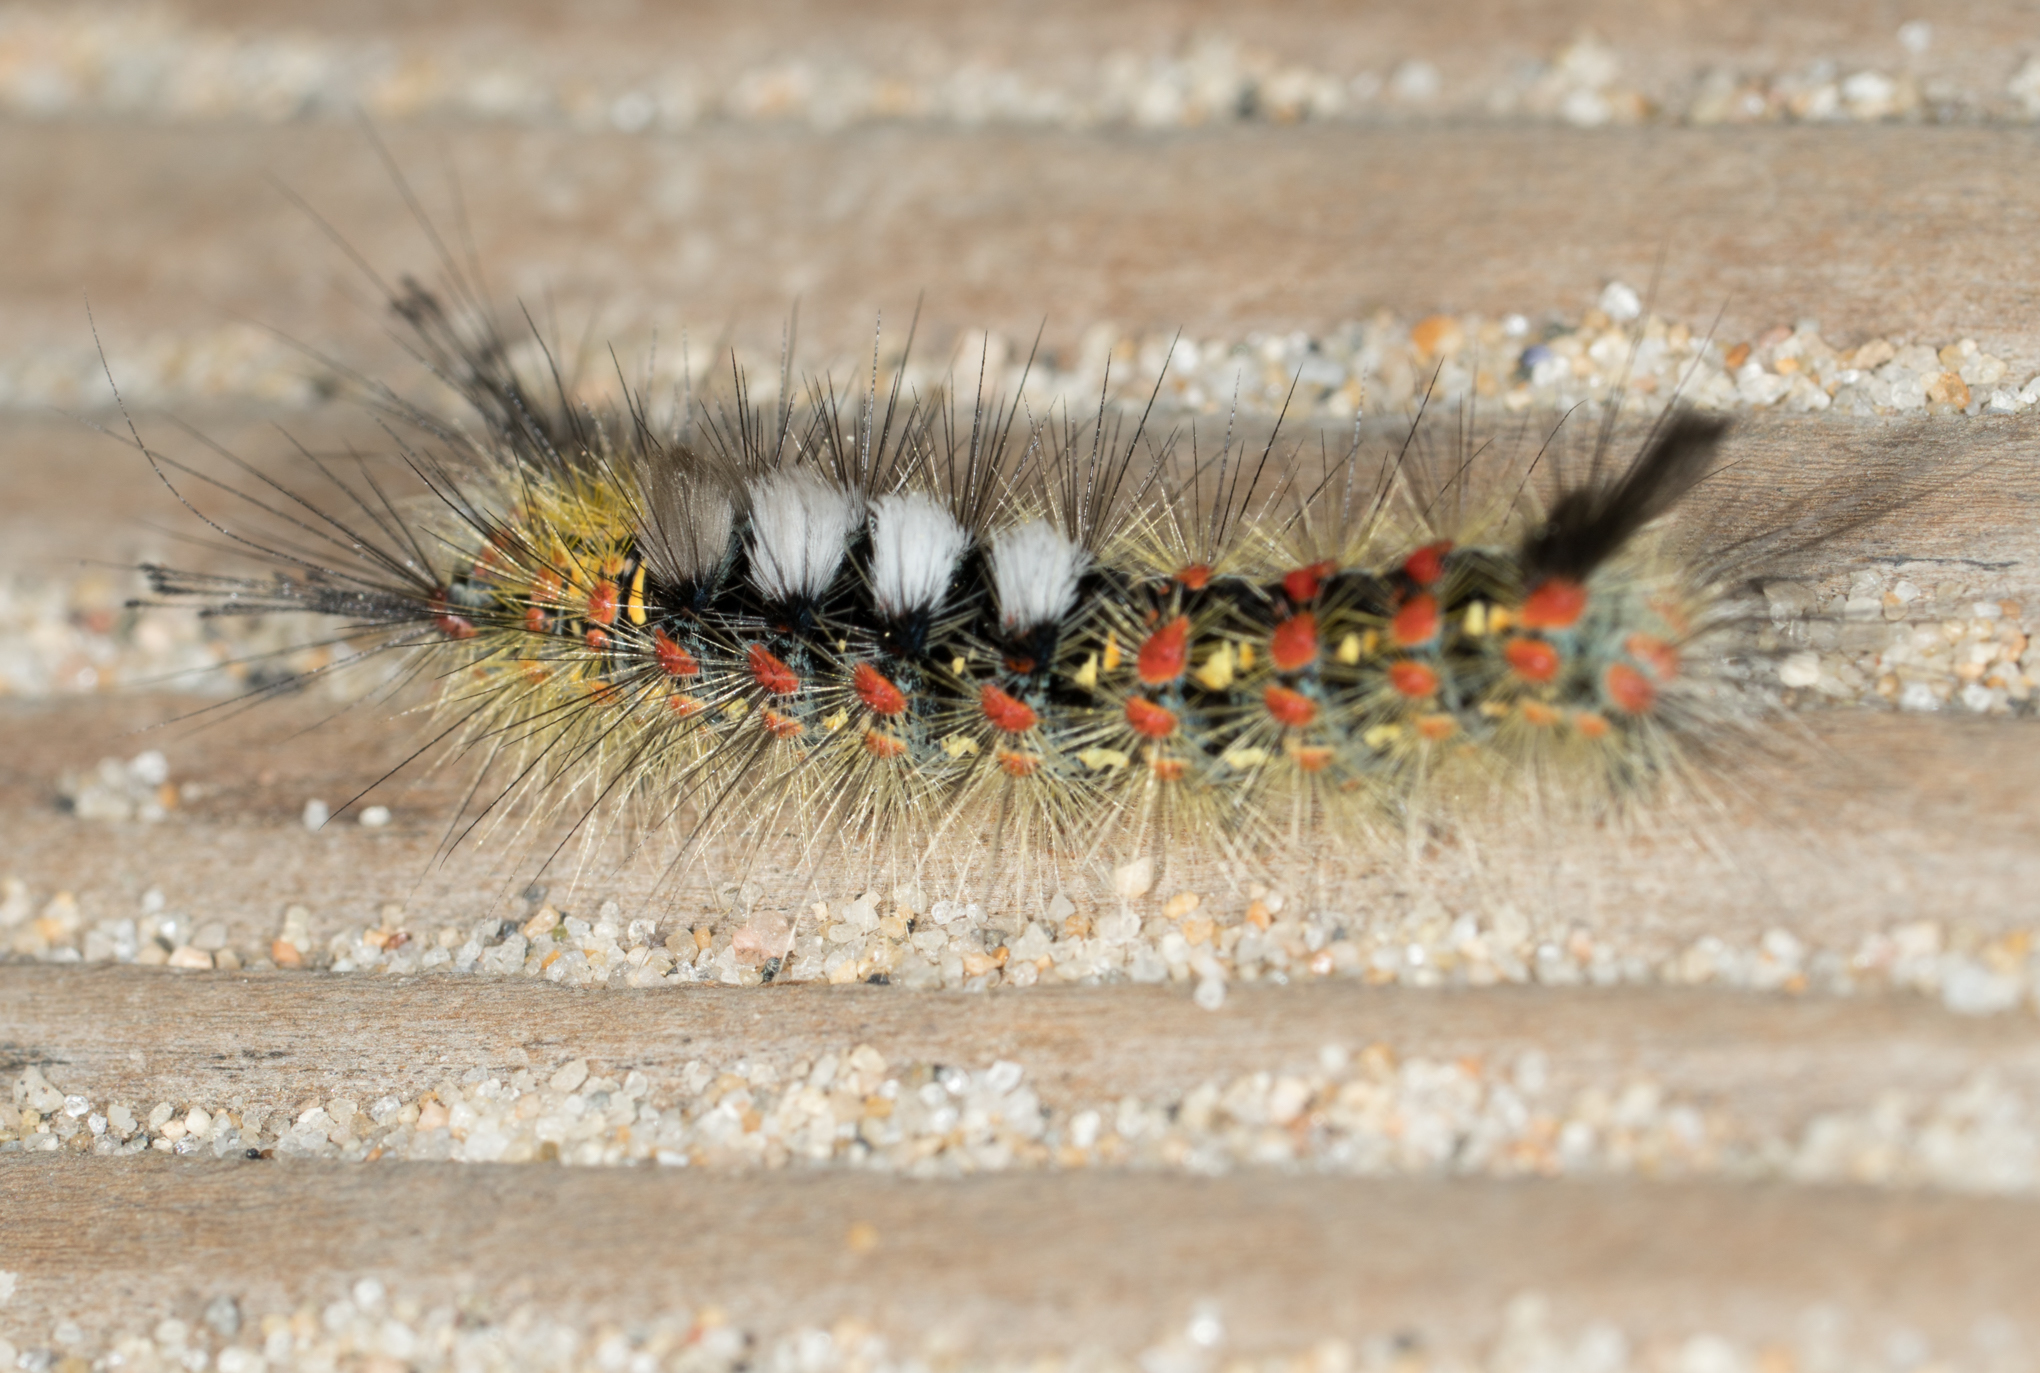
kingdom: Animalia
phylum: Arthropoda
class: Insecta
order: Lepidoptera
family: Erebidae
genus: Orgyia
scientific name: Orgyia vetusta
